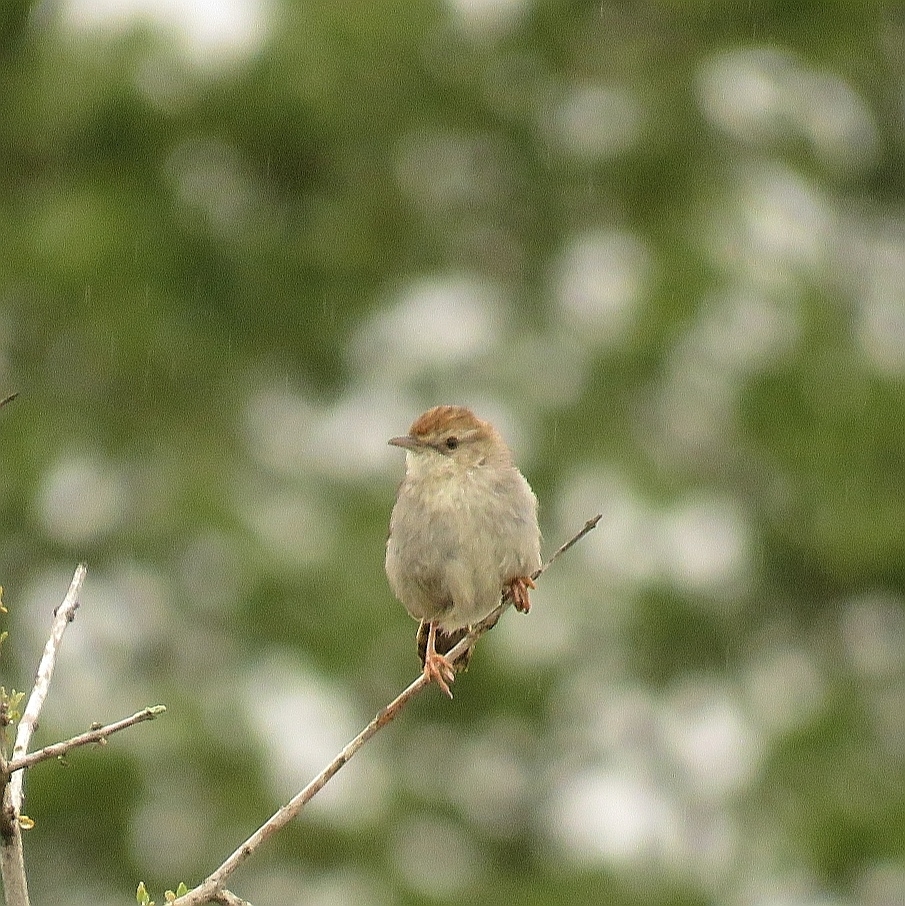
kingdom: Animalia
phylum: Chordata
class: Aves
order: Passeriformes
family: Cisticolidae
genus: Cisticola
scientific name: Cisticola subruficapilla
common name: Grey-backed cisticola
